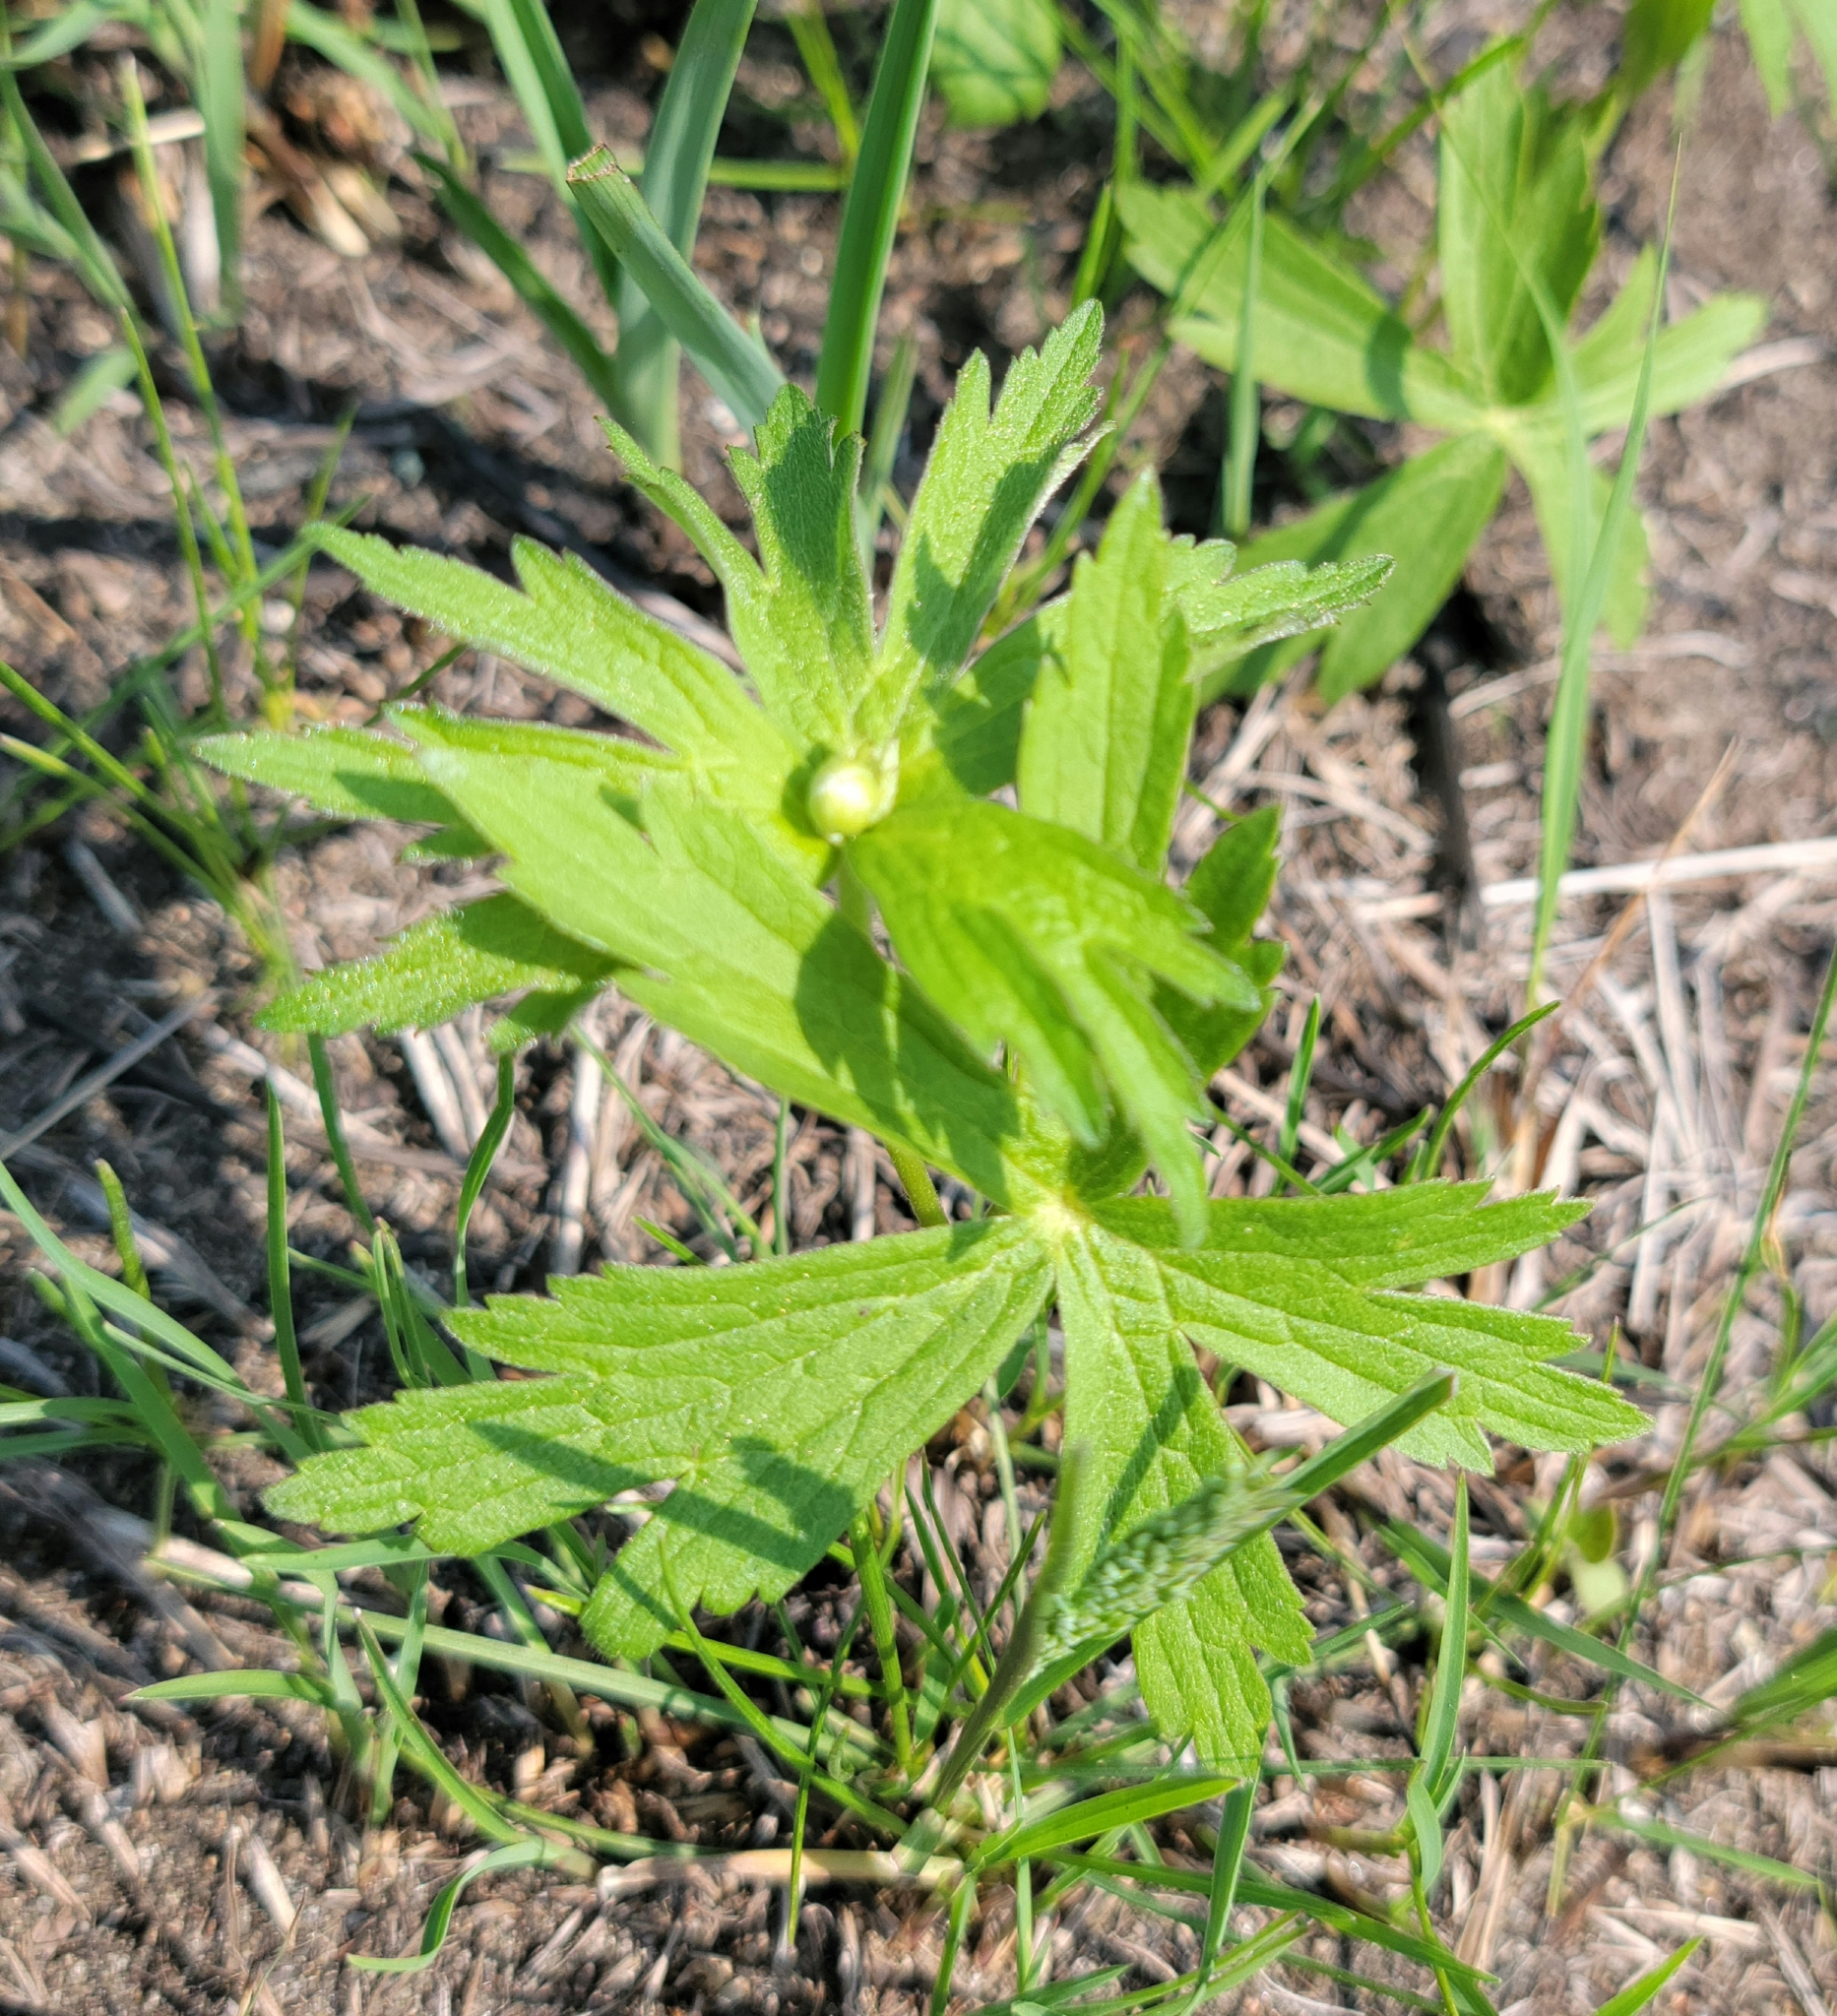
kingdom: Plantae
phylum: Tracheophyta
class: Magnoliopsida
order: Ranunculales
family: Ranunculaceae
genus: Anemonastrum
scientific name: Anemonastrum canadense
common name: Canada anemone
